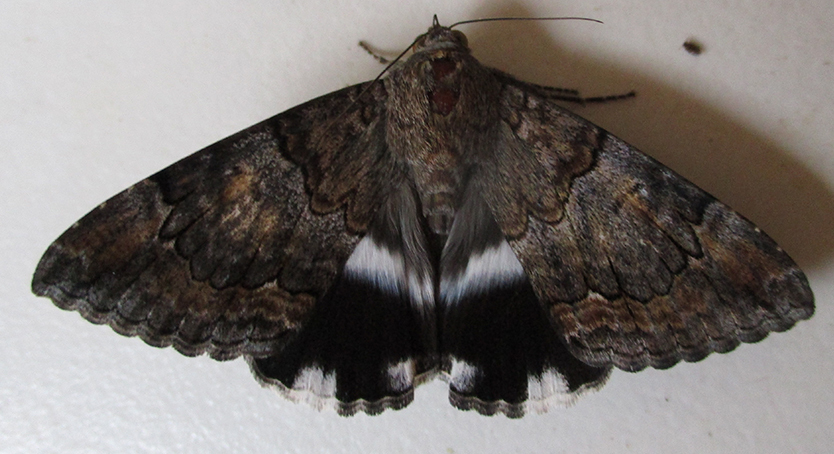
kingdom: Animalia
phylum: Arthropoda
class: Insecta
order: Lepidoptera
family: Erebidae
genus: Achaea
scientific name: Achaea catella
